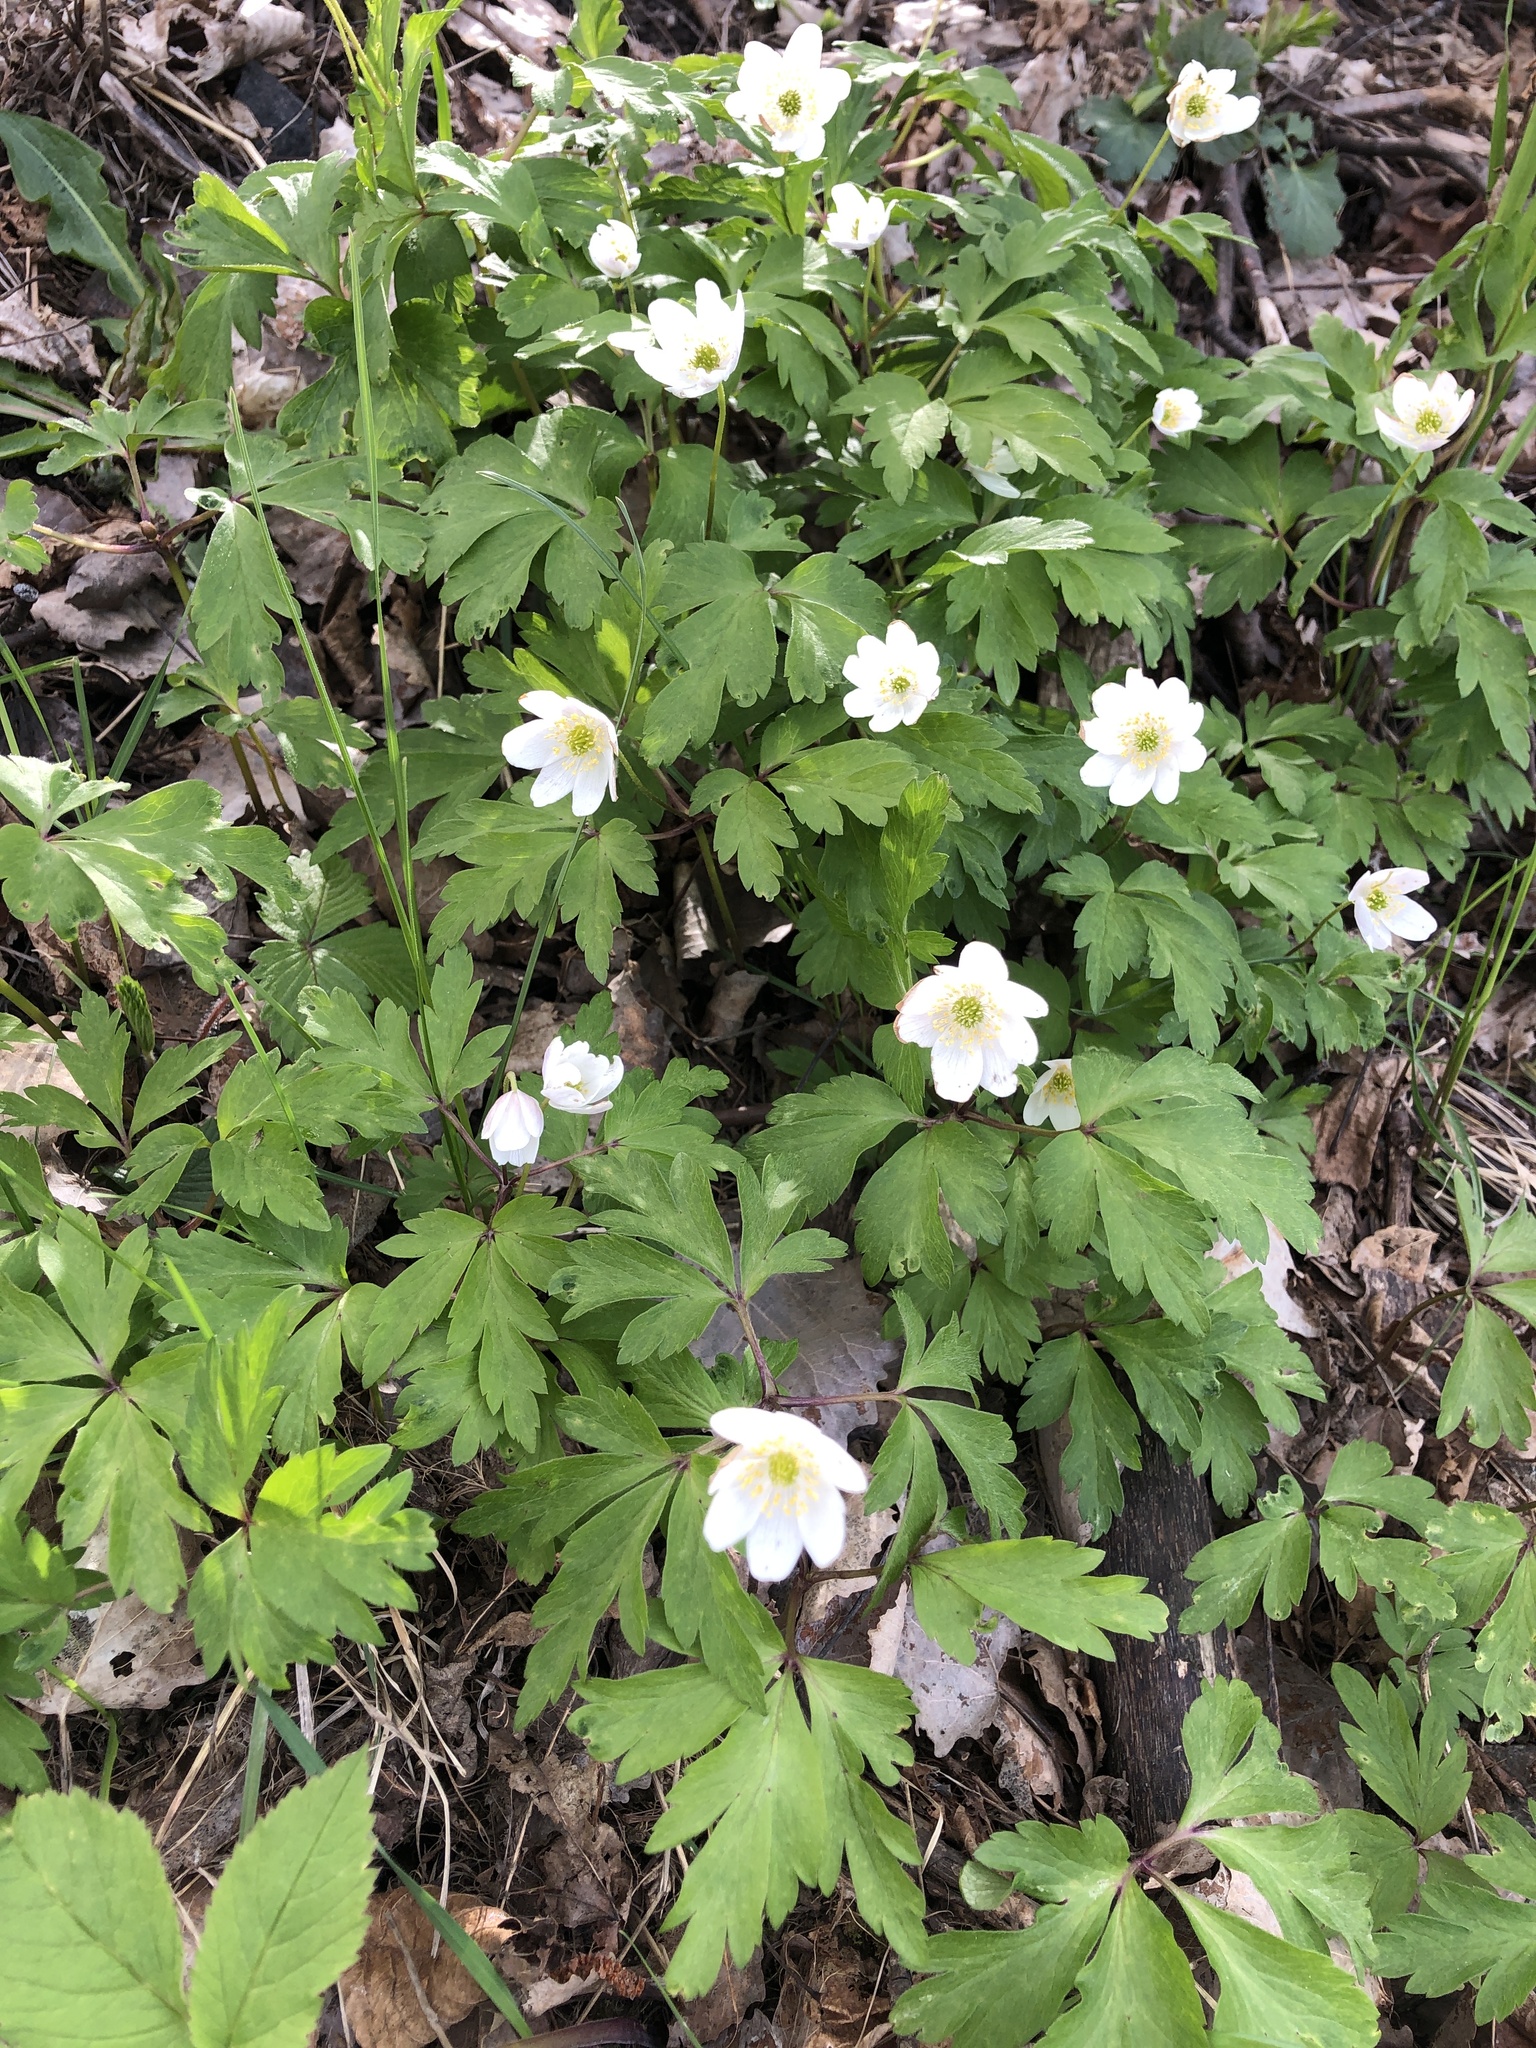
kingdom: Plantae
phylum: Tracheophyta
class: Magnoliopsida
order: Ranunculales
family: Ranunculaceae
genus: Anemone
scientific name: Anemone nemorosa
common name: Wood anemone
